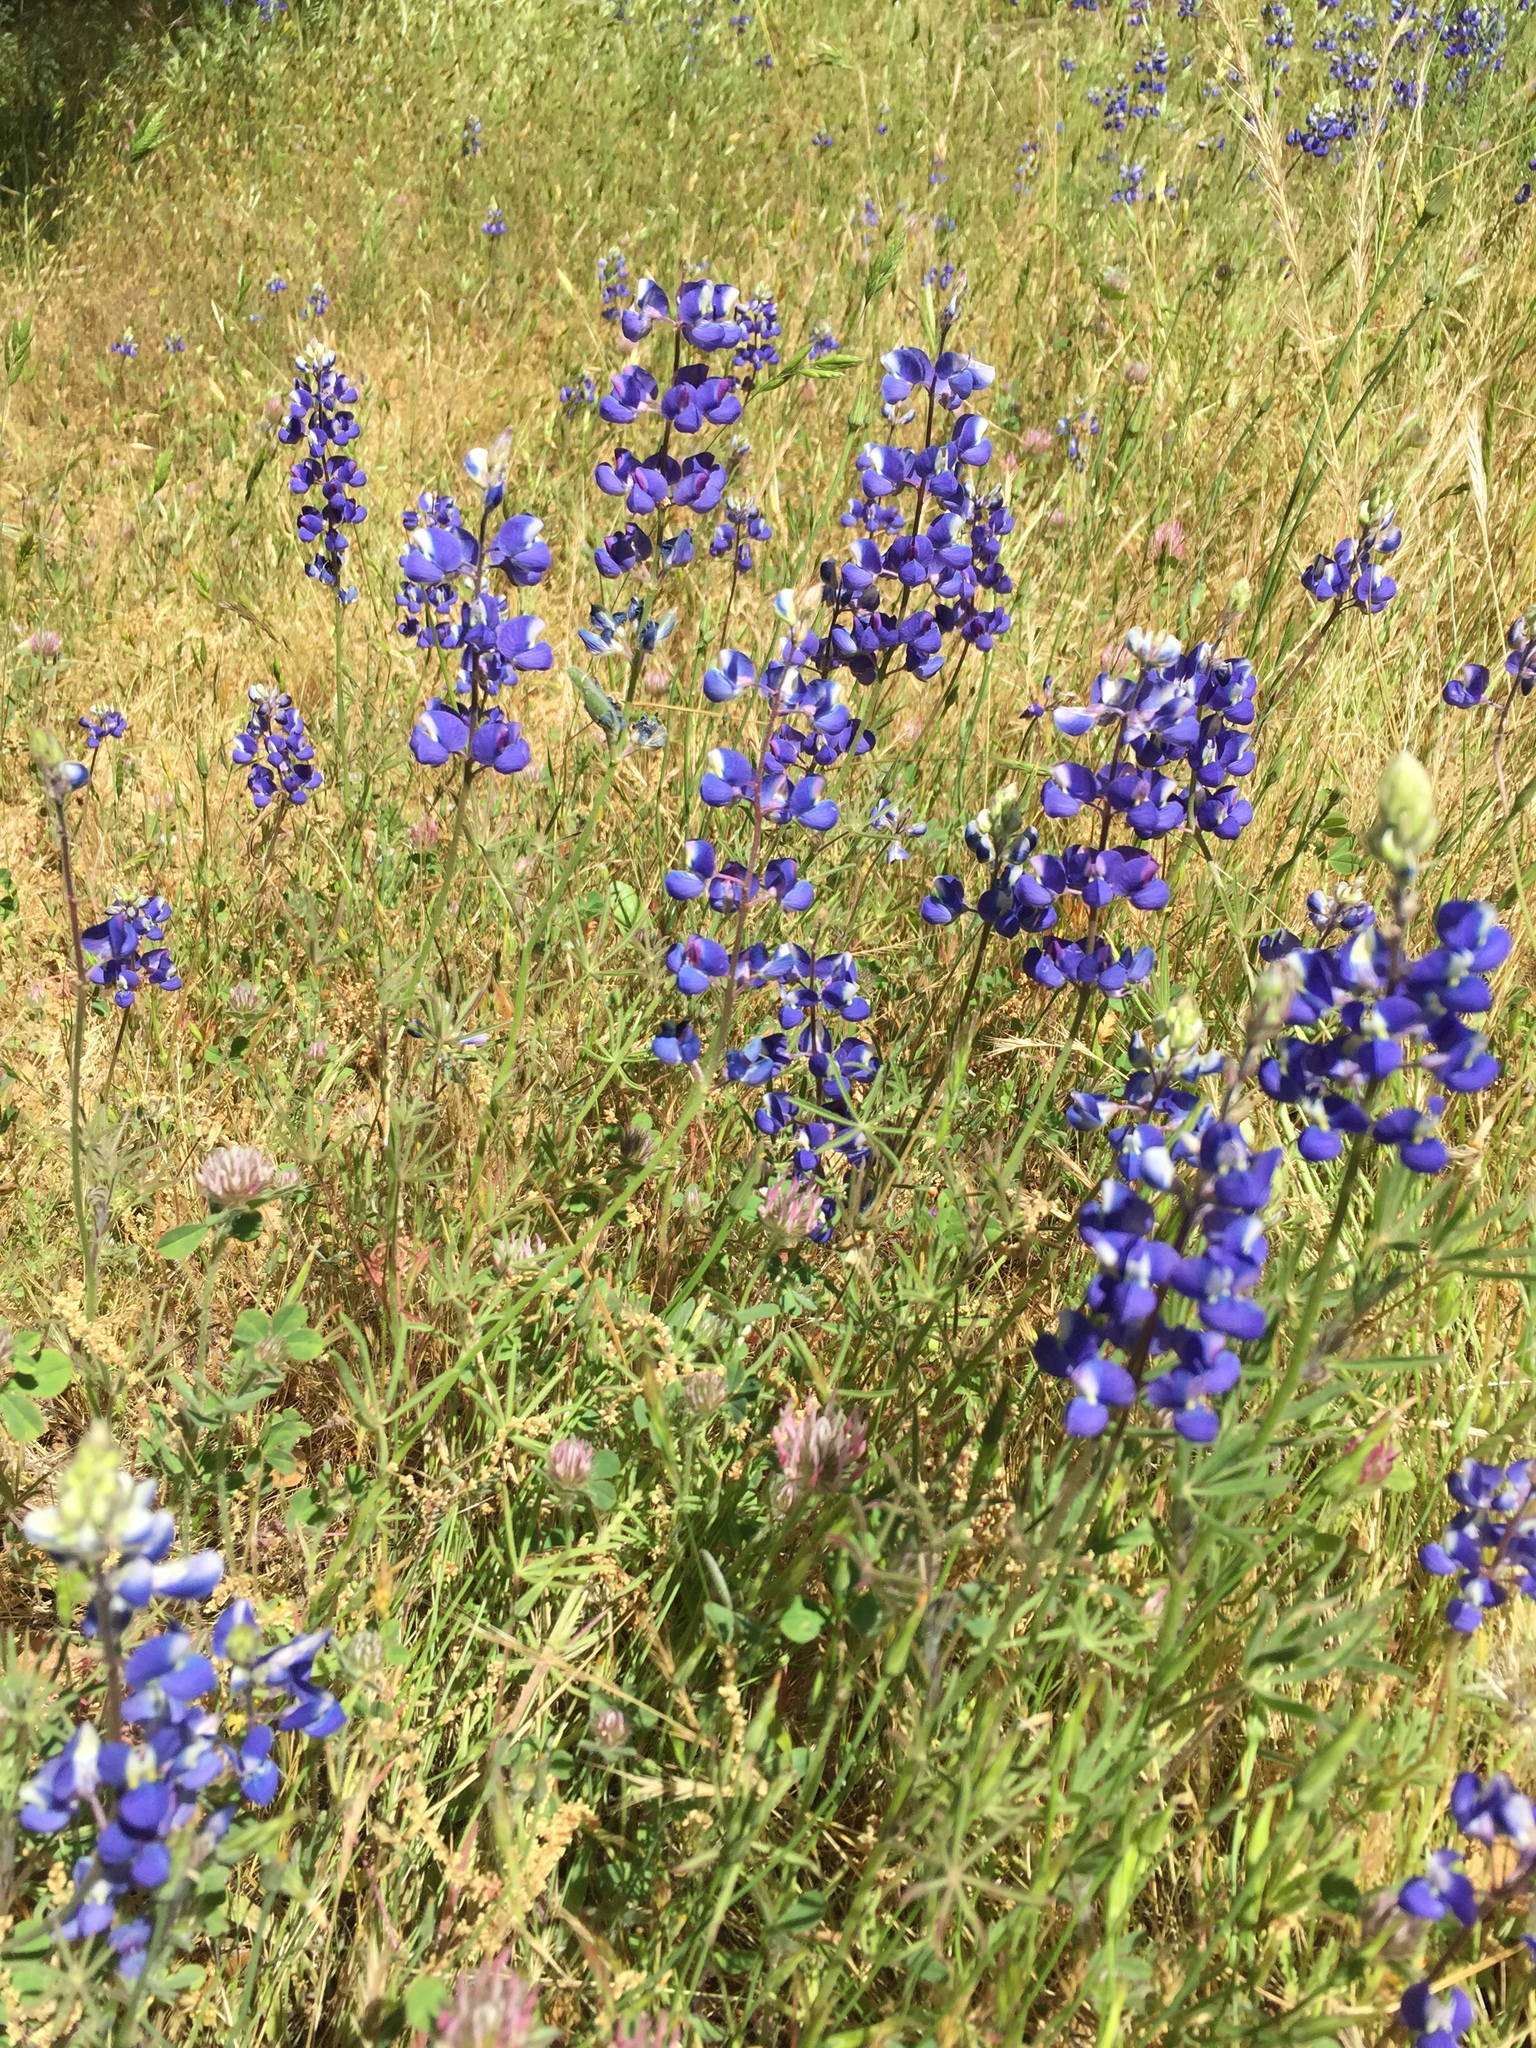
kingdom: Plantae
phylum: Tracheophyta
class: Magnoliopsida
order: Fabales
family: Fabaceae
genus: Lupinus
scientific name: Lupinus benthamii
